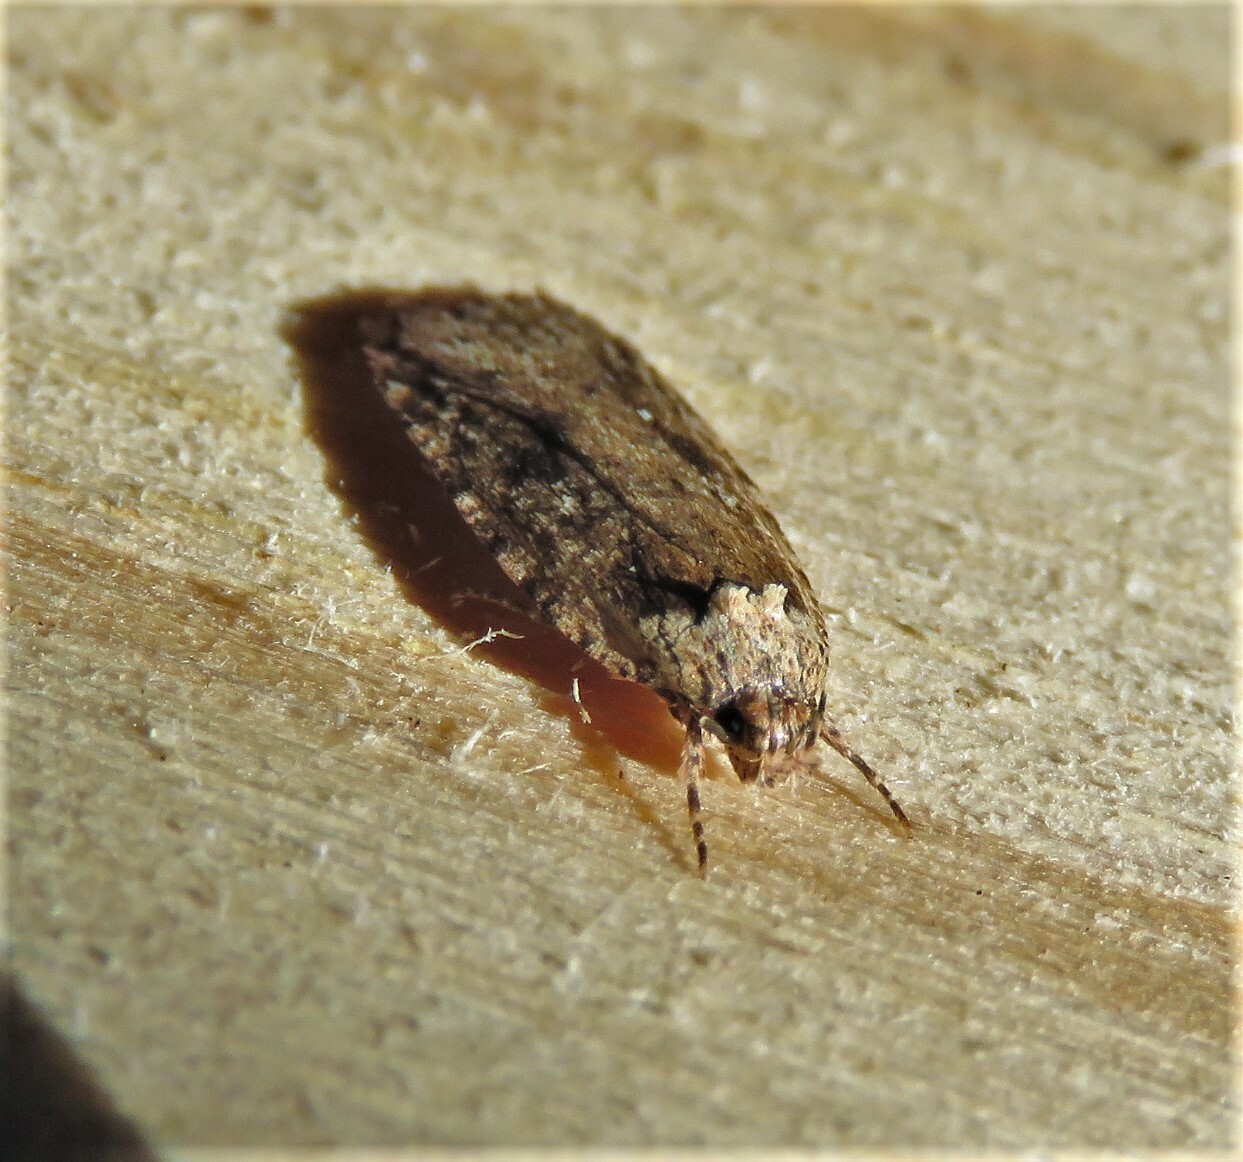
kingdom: Animalia
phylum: Arthropoda
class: Insecta
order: Lepidoptera
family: Depressariidae
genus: Depressaria
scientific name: Depressaria radiella
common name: Parsnip moth
